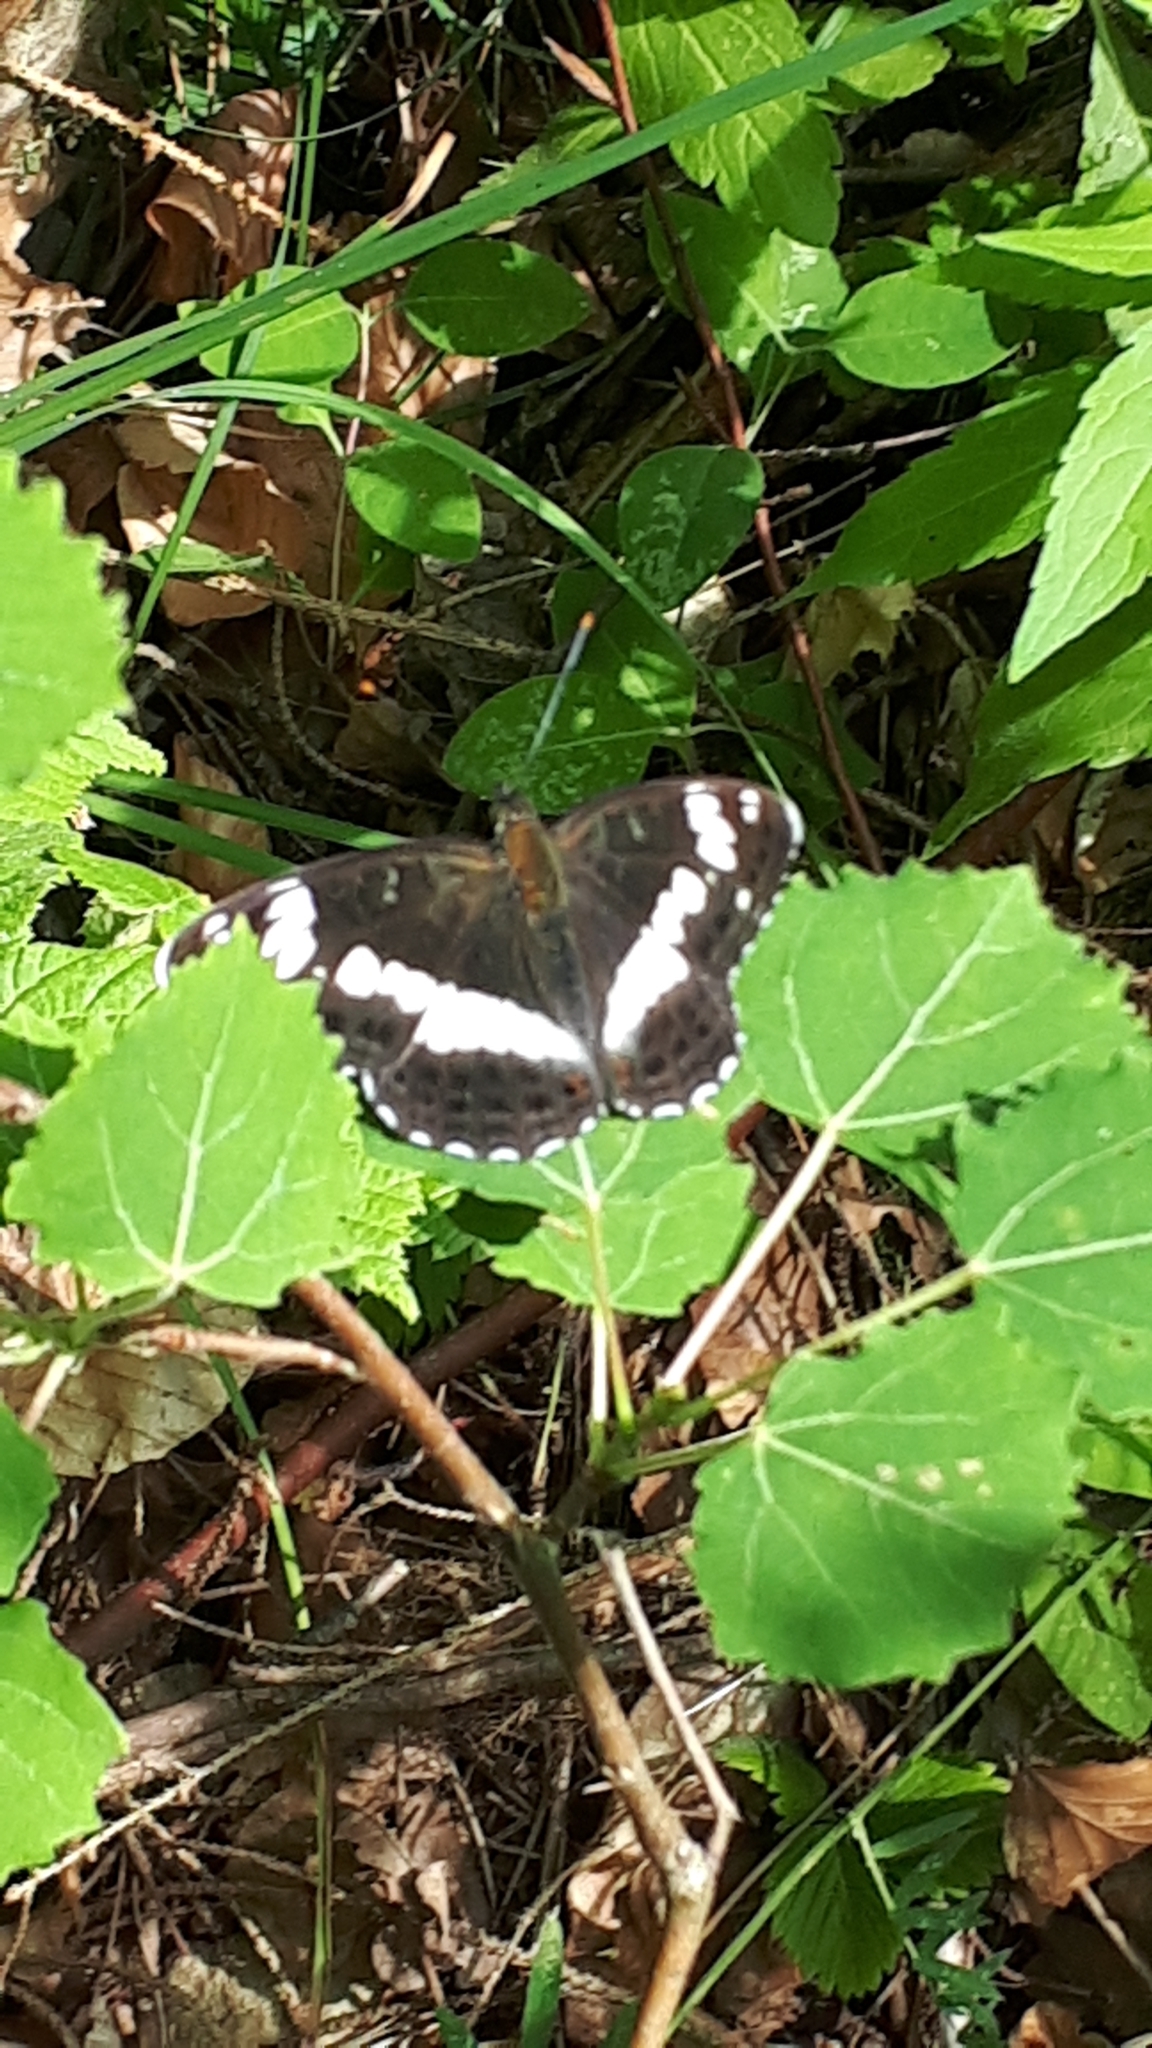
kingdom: Animalia
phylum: Arthropoda
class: Insecta
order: Lepidoptera
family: Nymphalidae
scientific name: Nymphalidae
